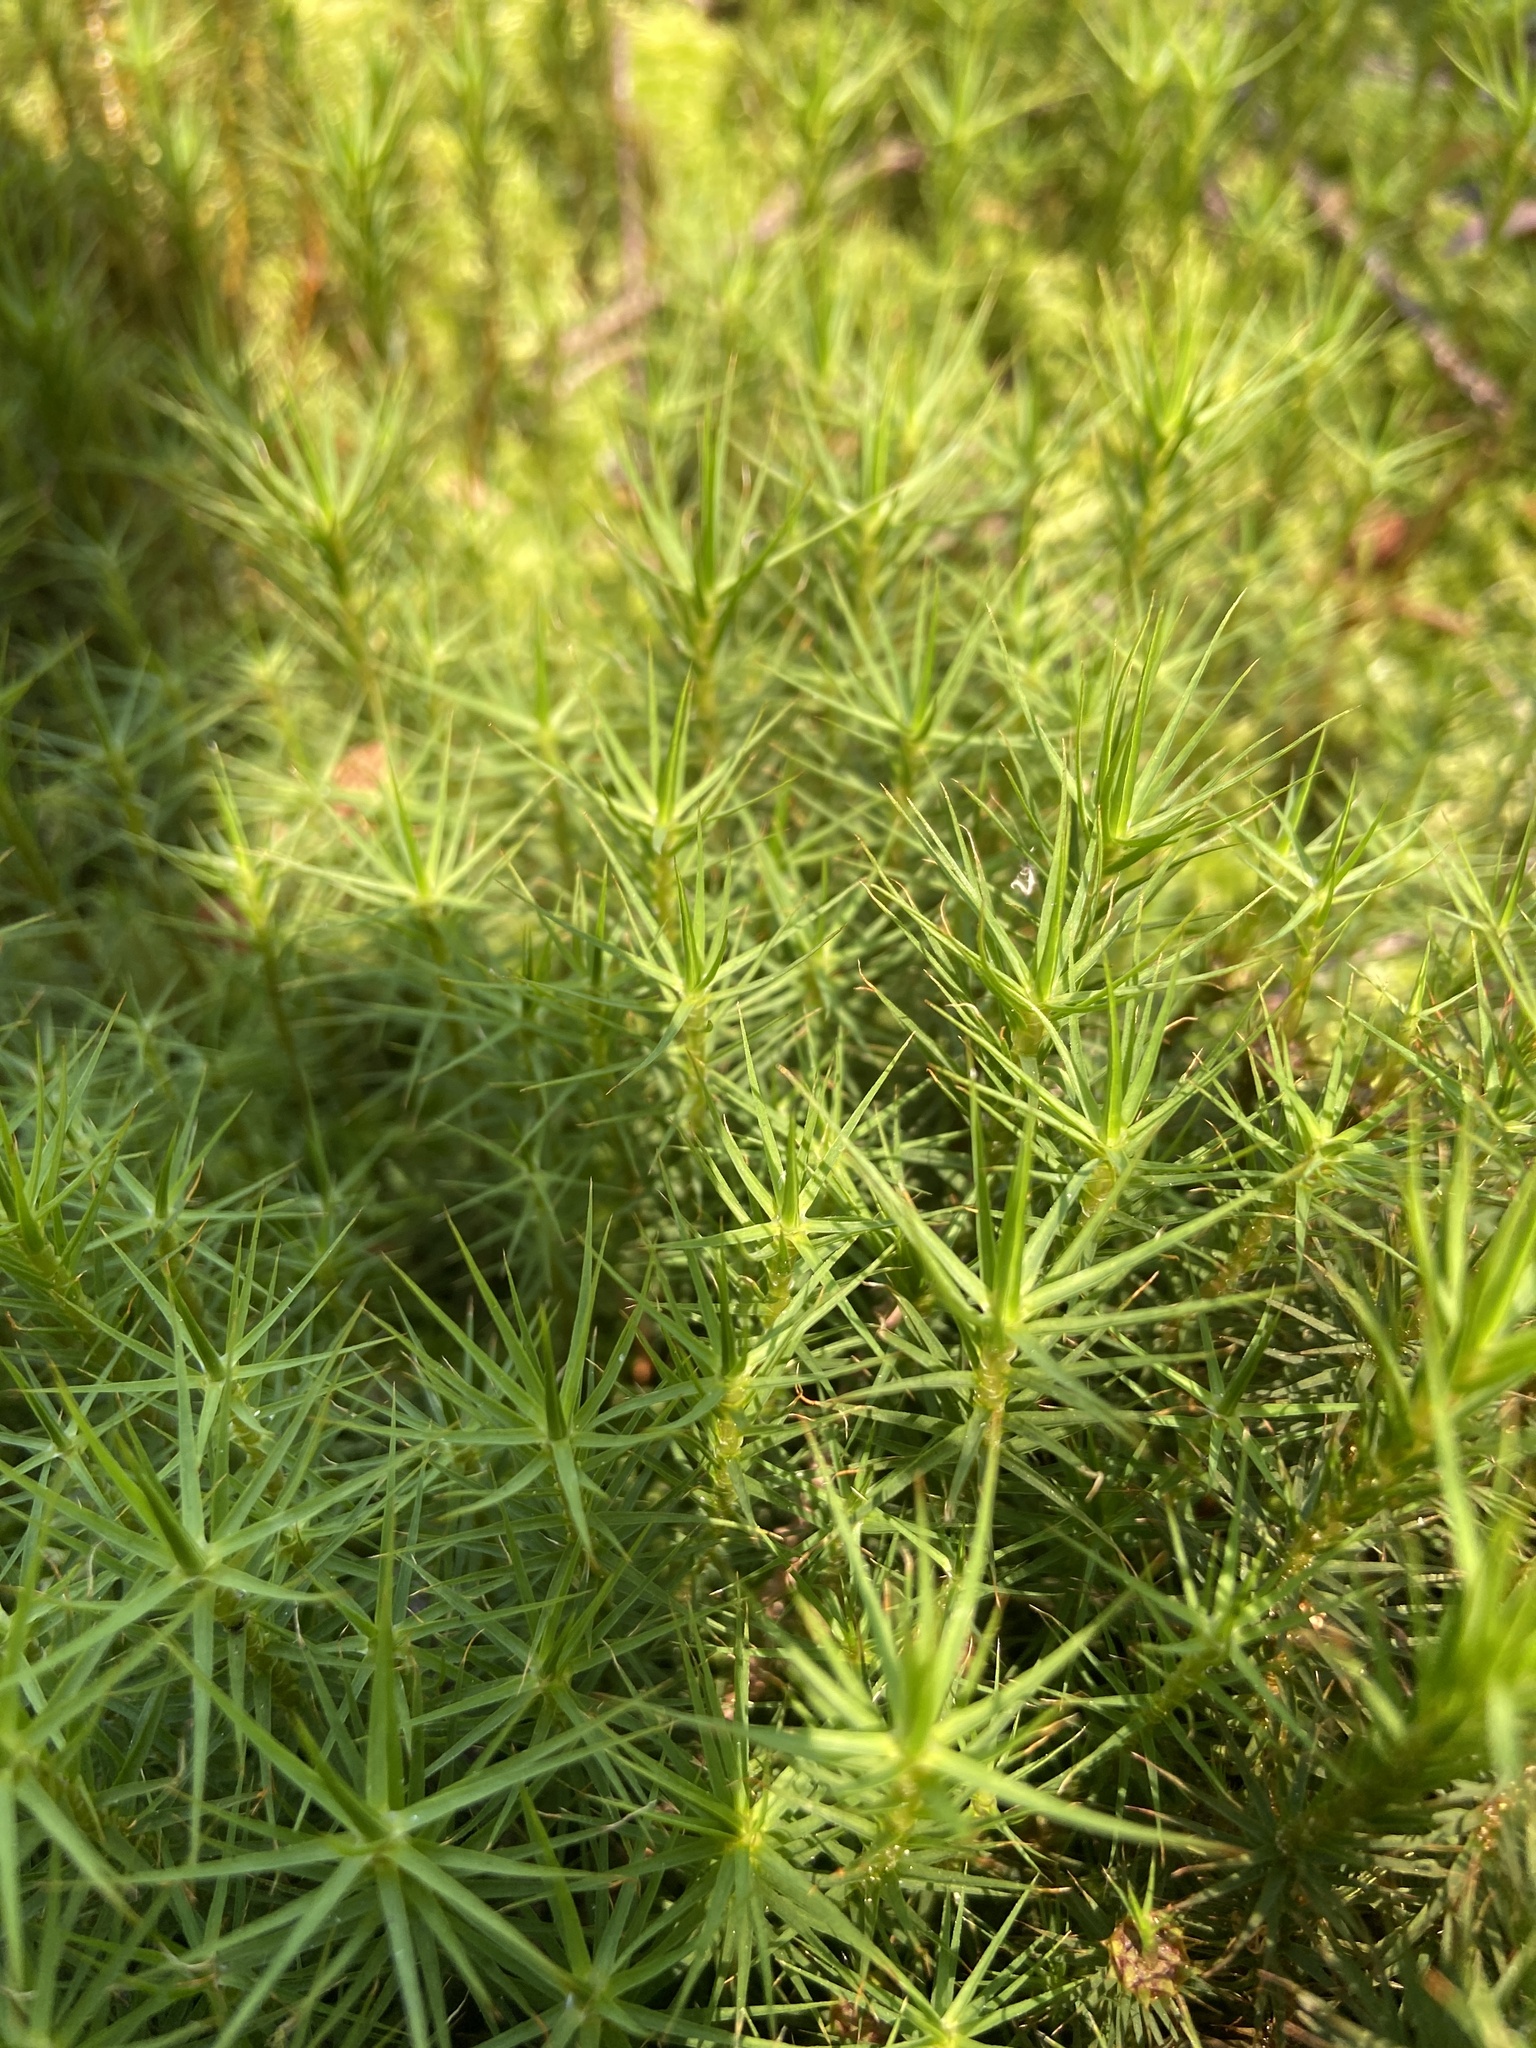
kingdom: Plantae
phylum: Bryophyta
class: Polytrichopsida
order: Polytrichales
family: Polytrichaceae
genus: Polytrichum
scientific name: Polytrichum commune
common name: Common haircap
